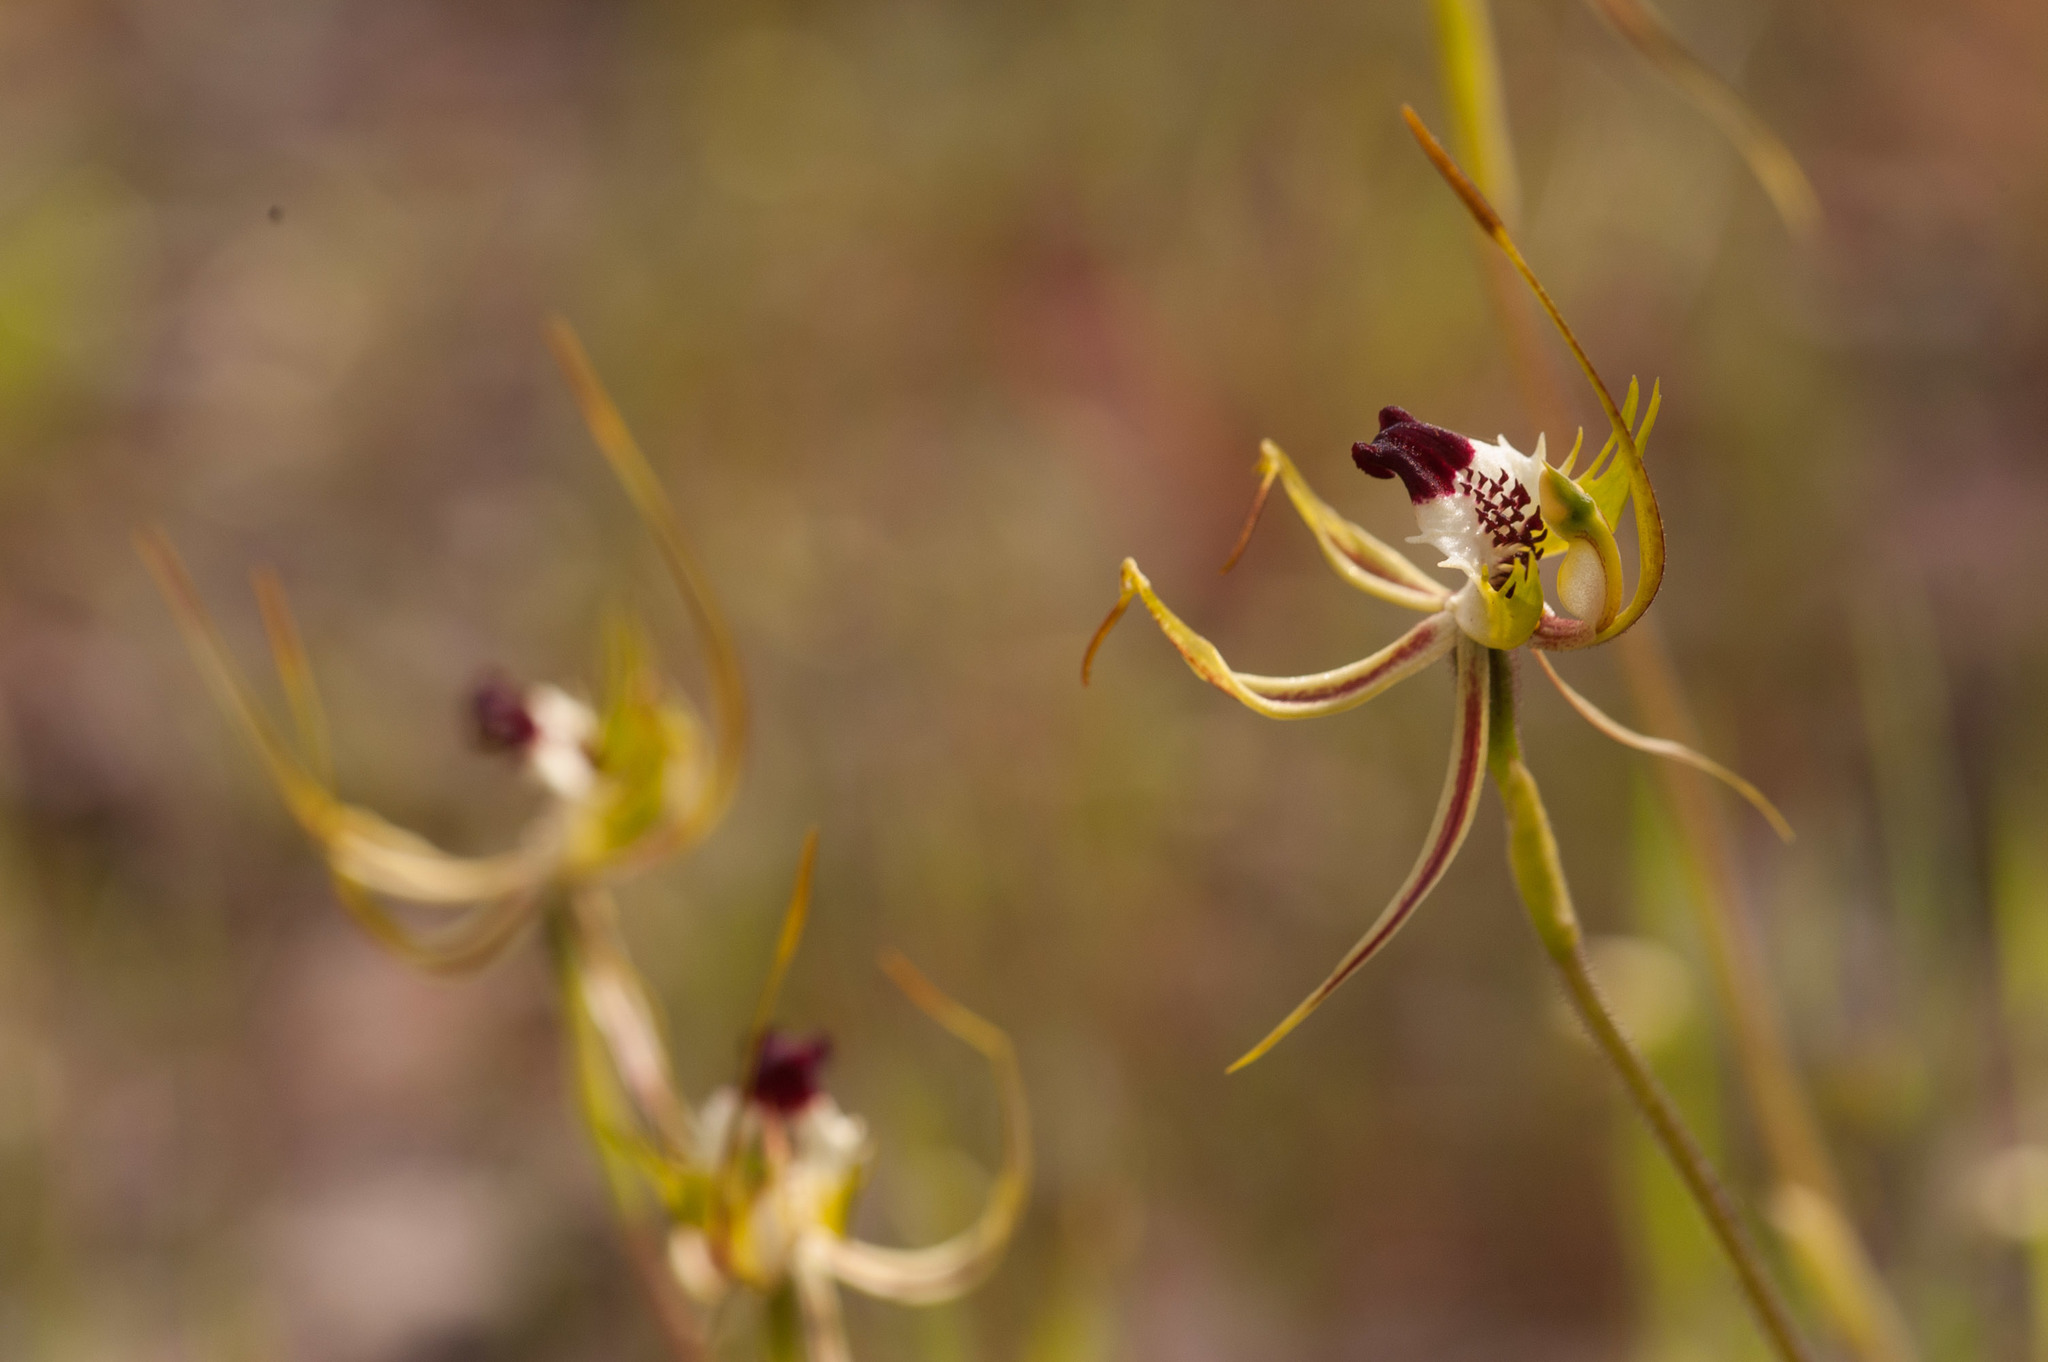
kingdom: Plantae
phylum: Tracheophyta
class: Liliopsida
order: Asparagales
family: Orchidaceae
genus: Caladenia
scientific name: Caladenia tentaculata
